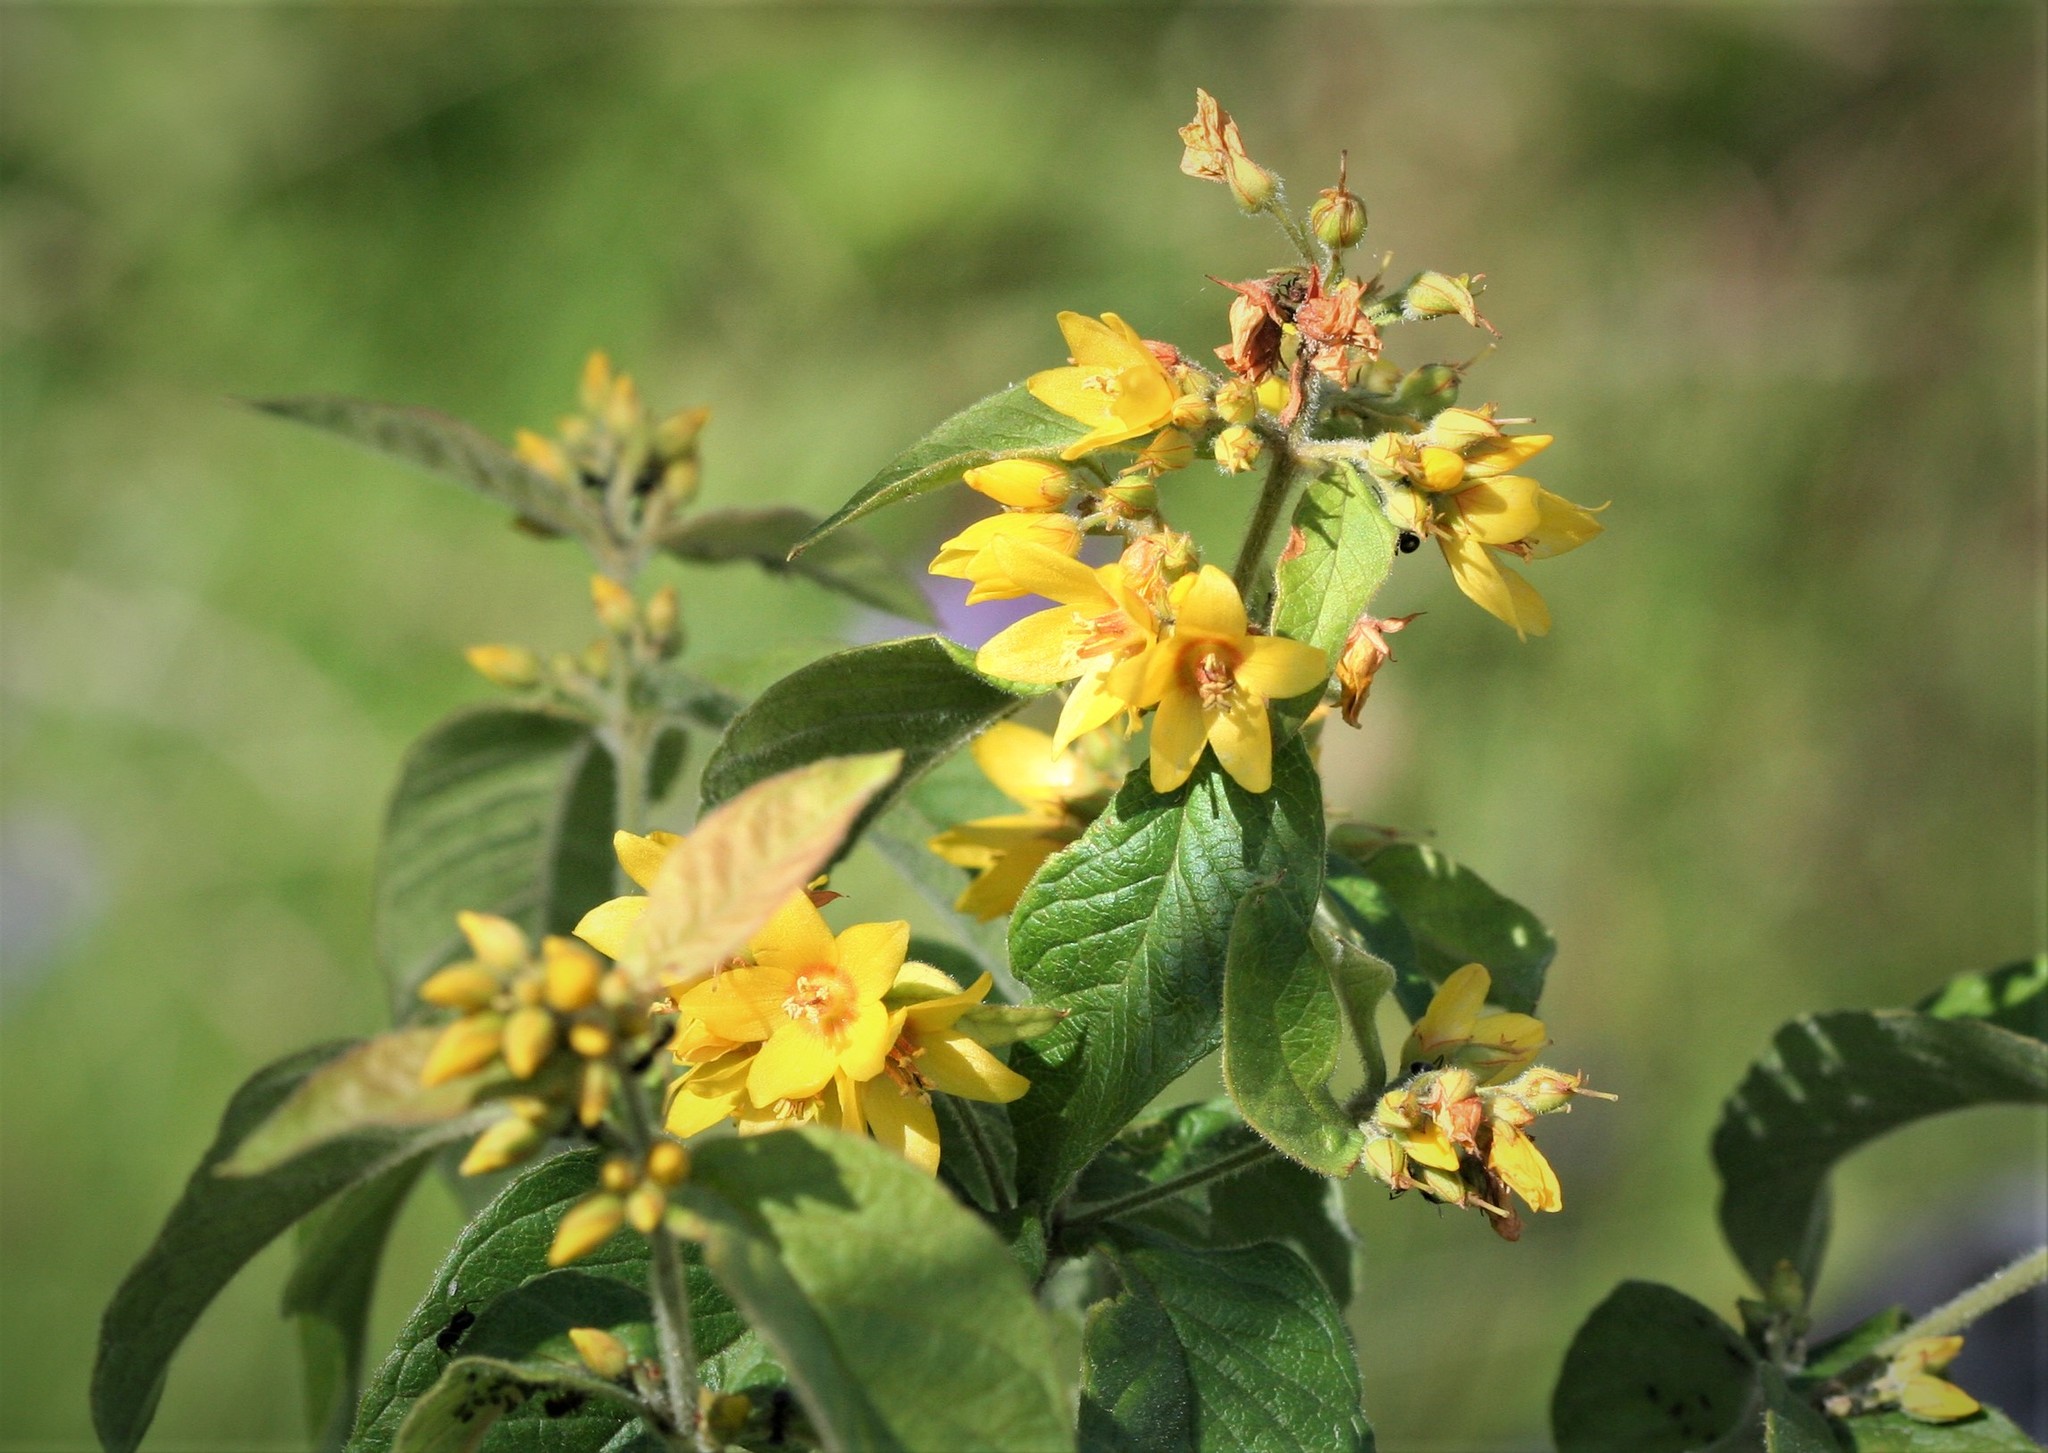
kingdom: Plantae
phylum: Tracheophyta
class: Magnoliopsida
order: Ericales
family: Primulaceae
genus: Lysimachia
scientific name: Lysimachia vulgaris
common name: Yellow loosestrife
